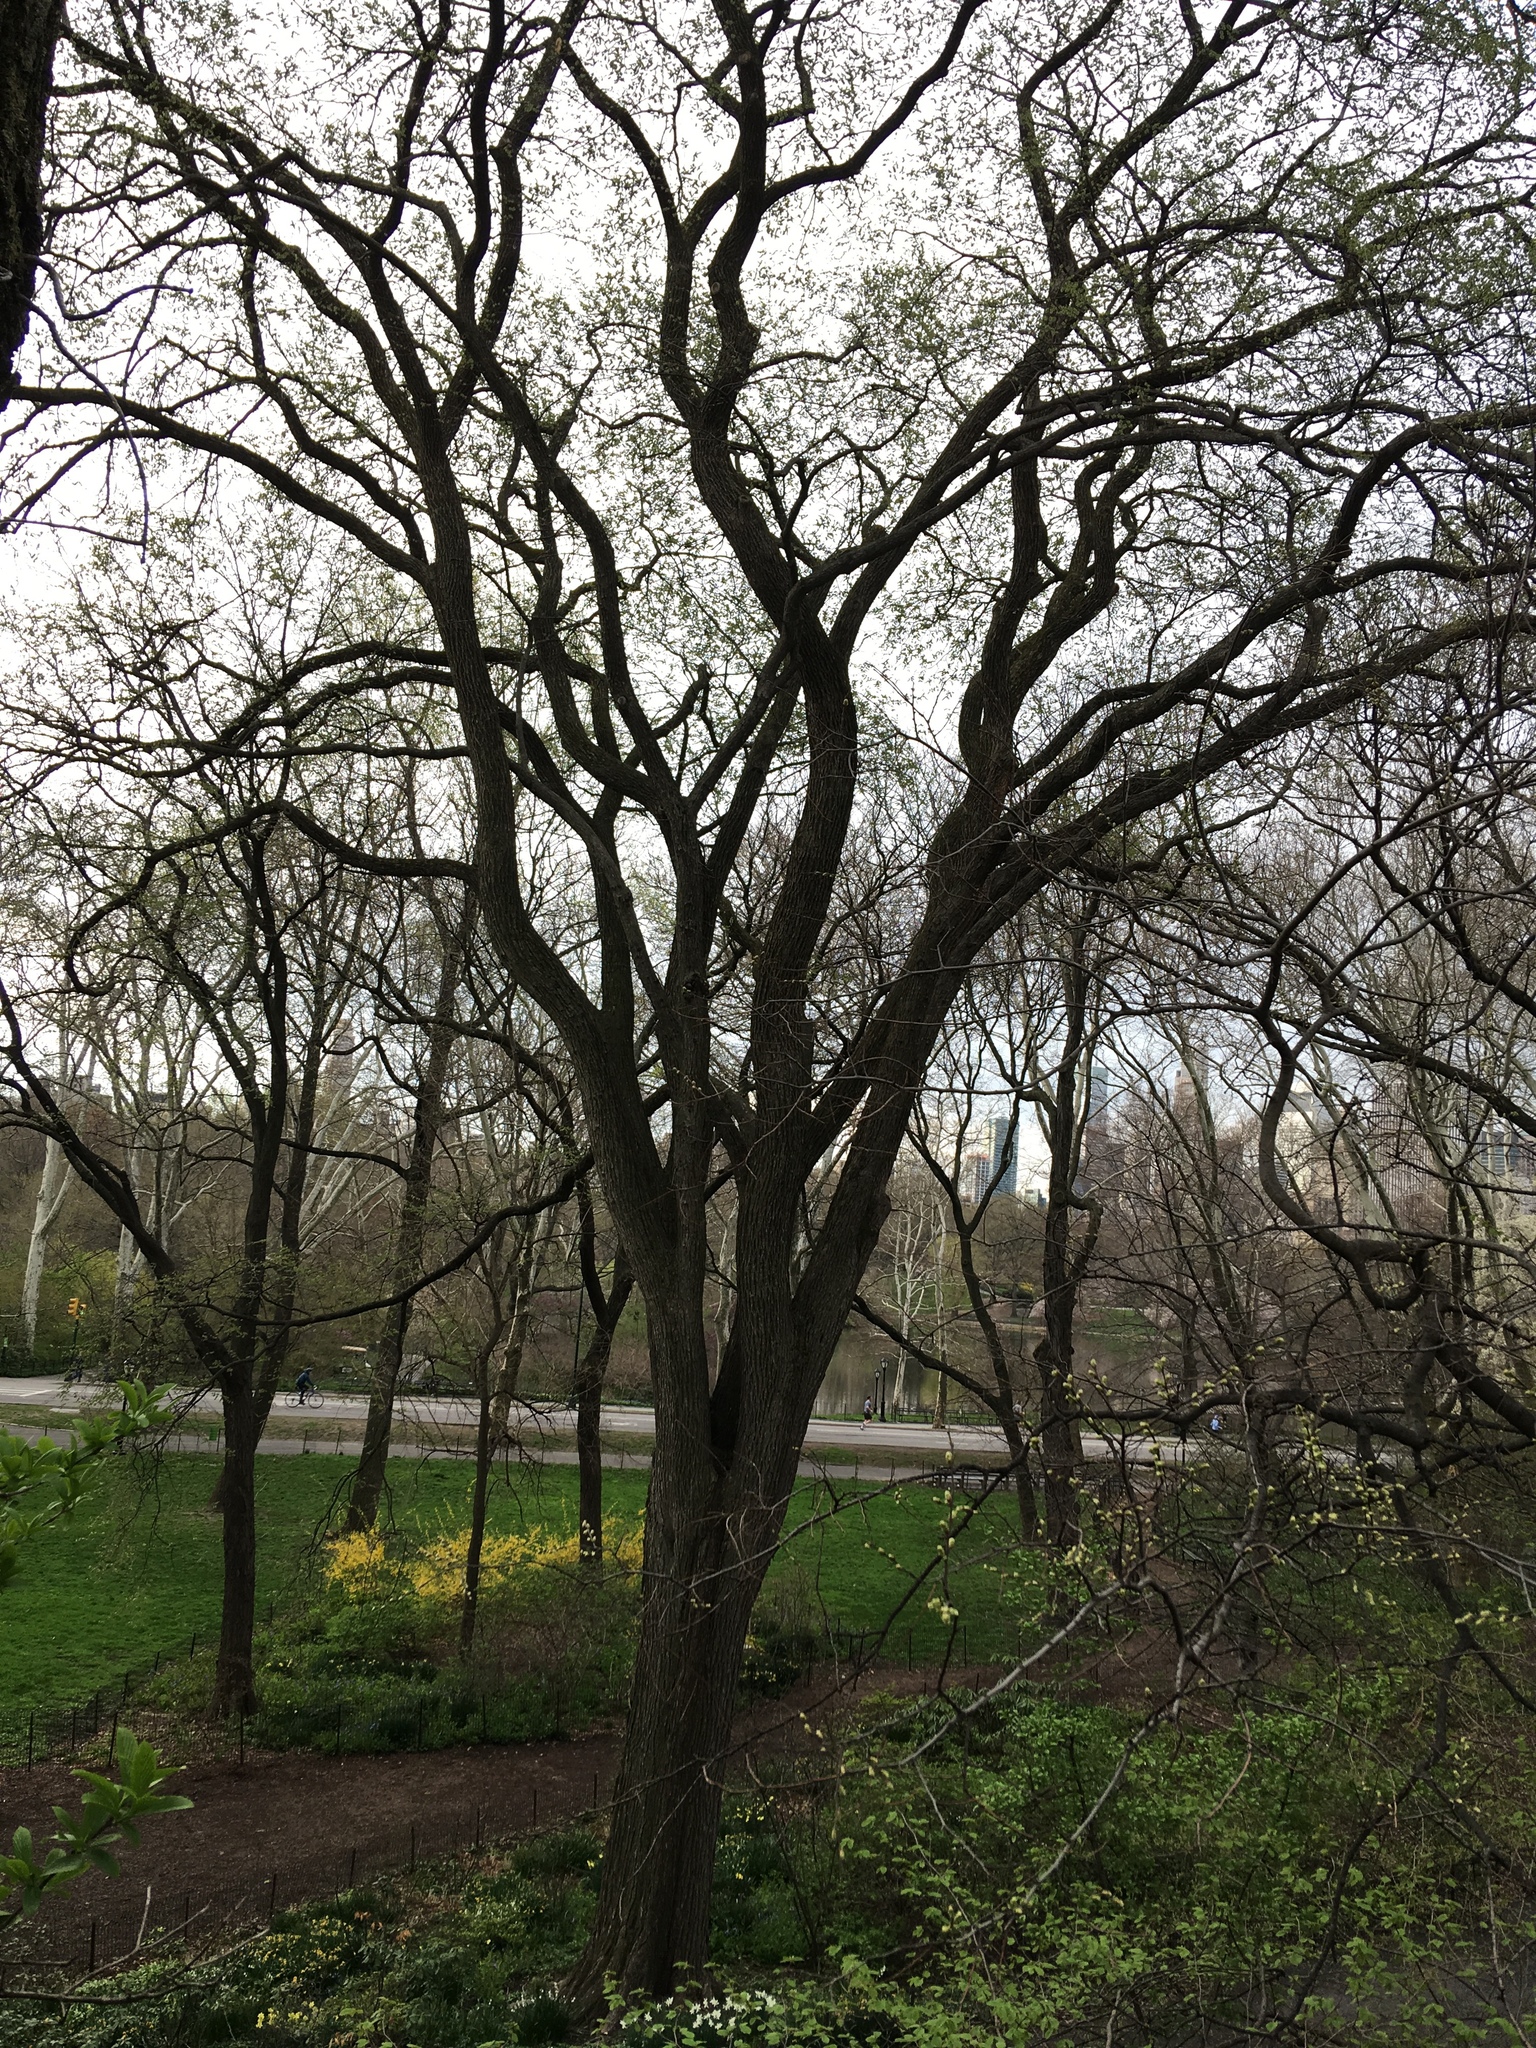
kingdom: Plantae
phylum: Tracheophyta
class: Magnoliopsida
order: Rosales
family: Ulmaceae
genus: Ulmus
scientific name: Ulmus americana
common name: American elm
